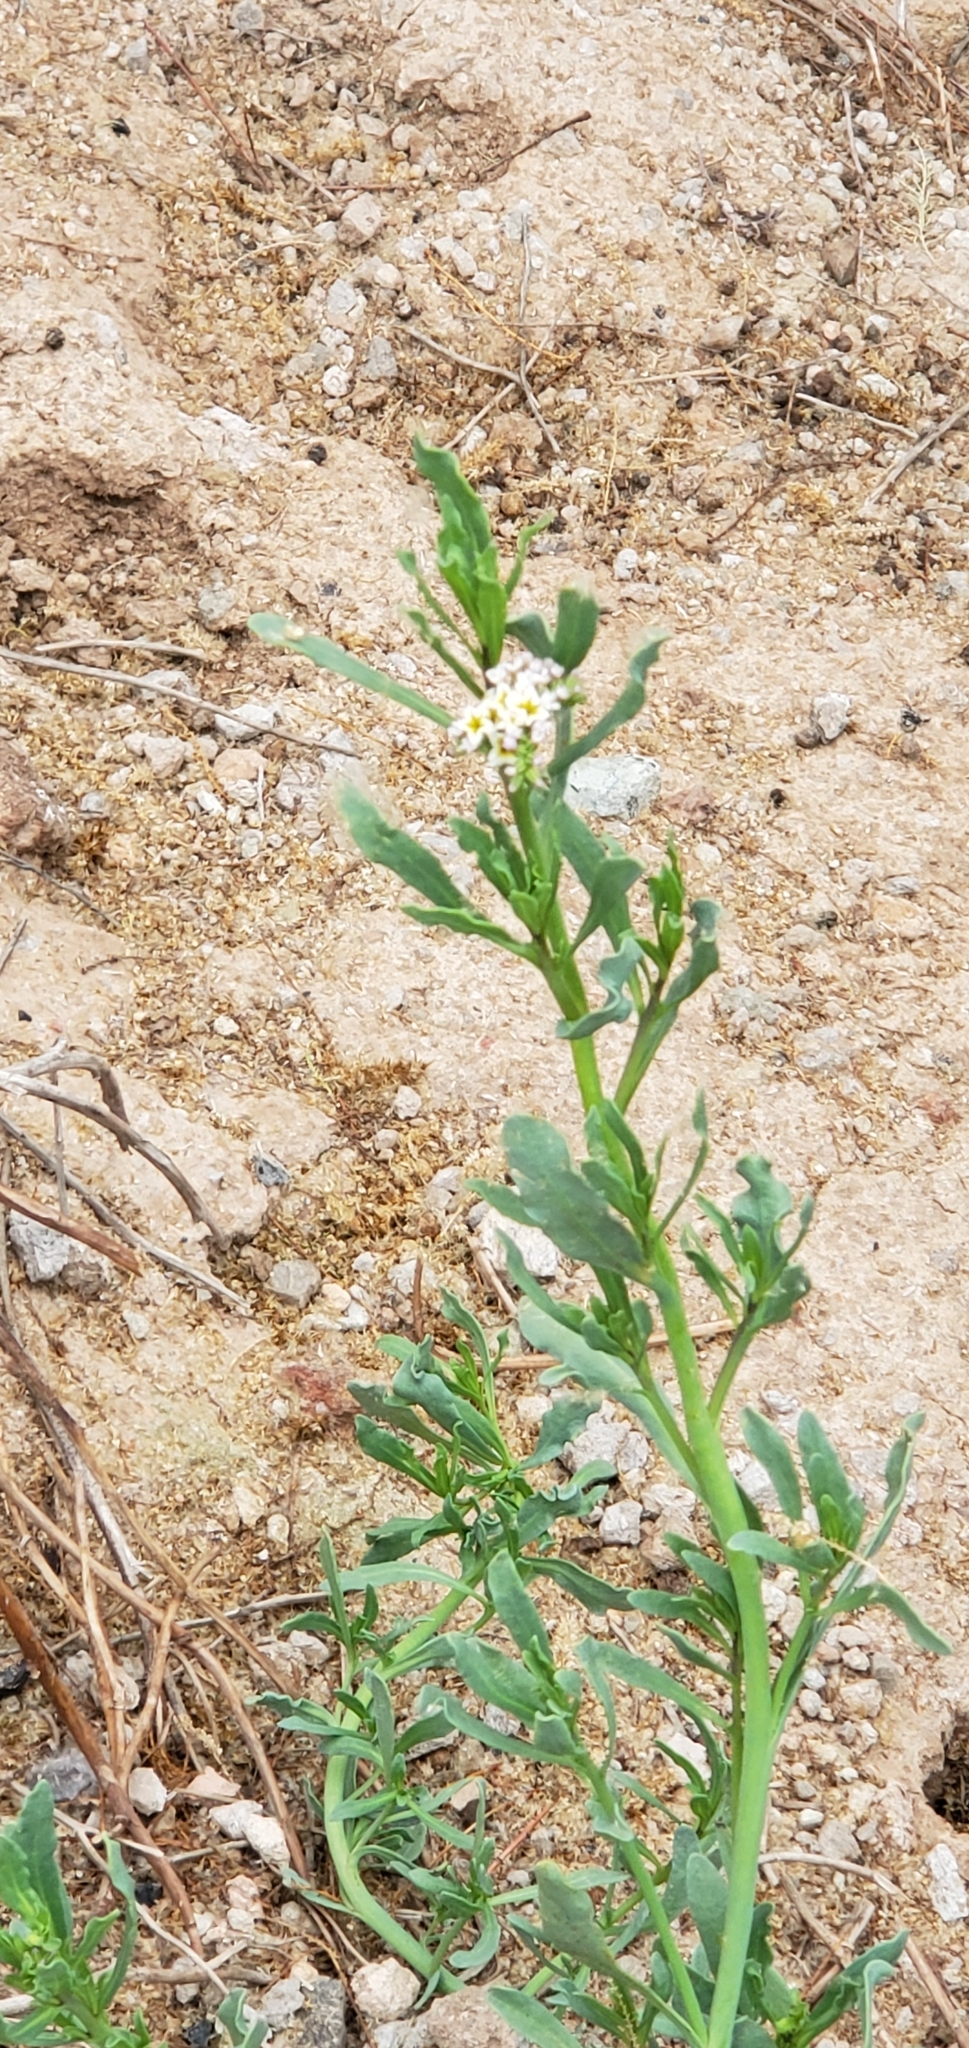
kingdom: Plantae
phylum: Tracheophyta
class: Magnoliopsida
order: Boraginales
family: Heliotropiaceae
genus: Heliotropium
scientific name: Heliotropium curassavicum
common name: Seaside heliotrope
